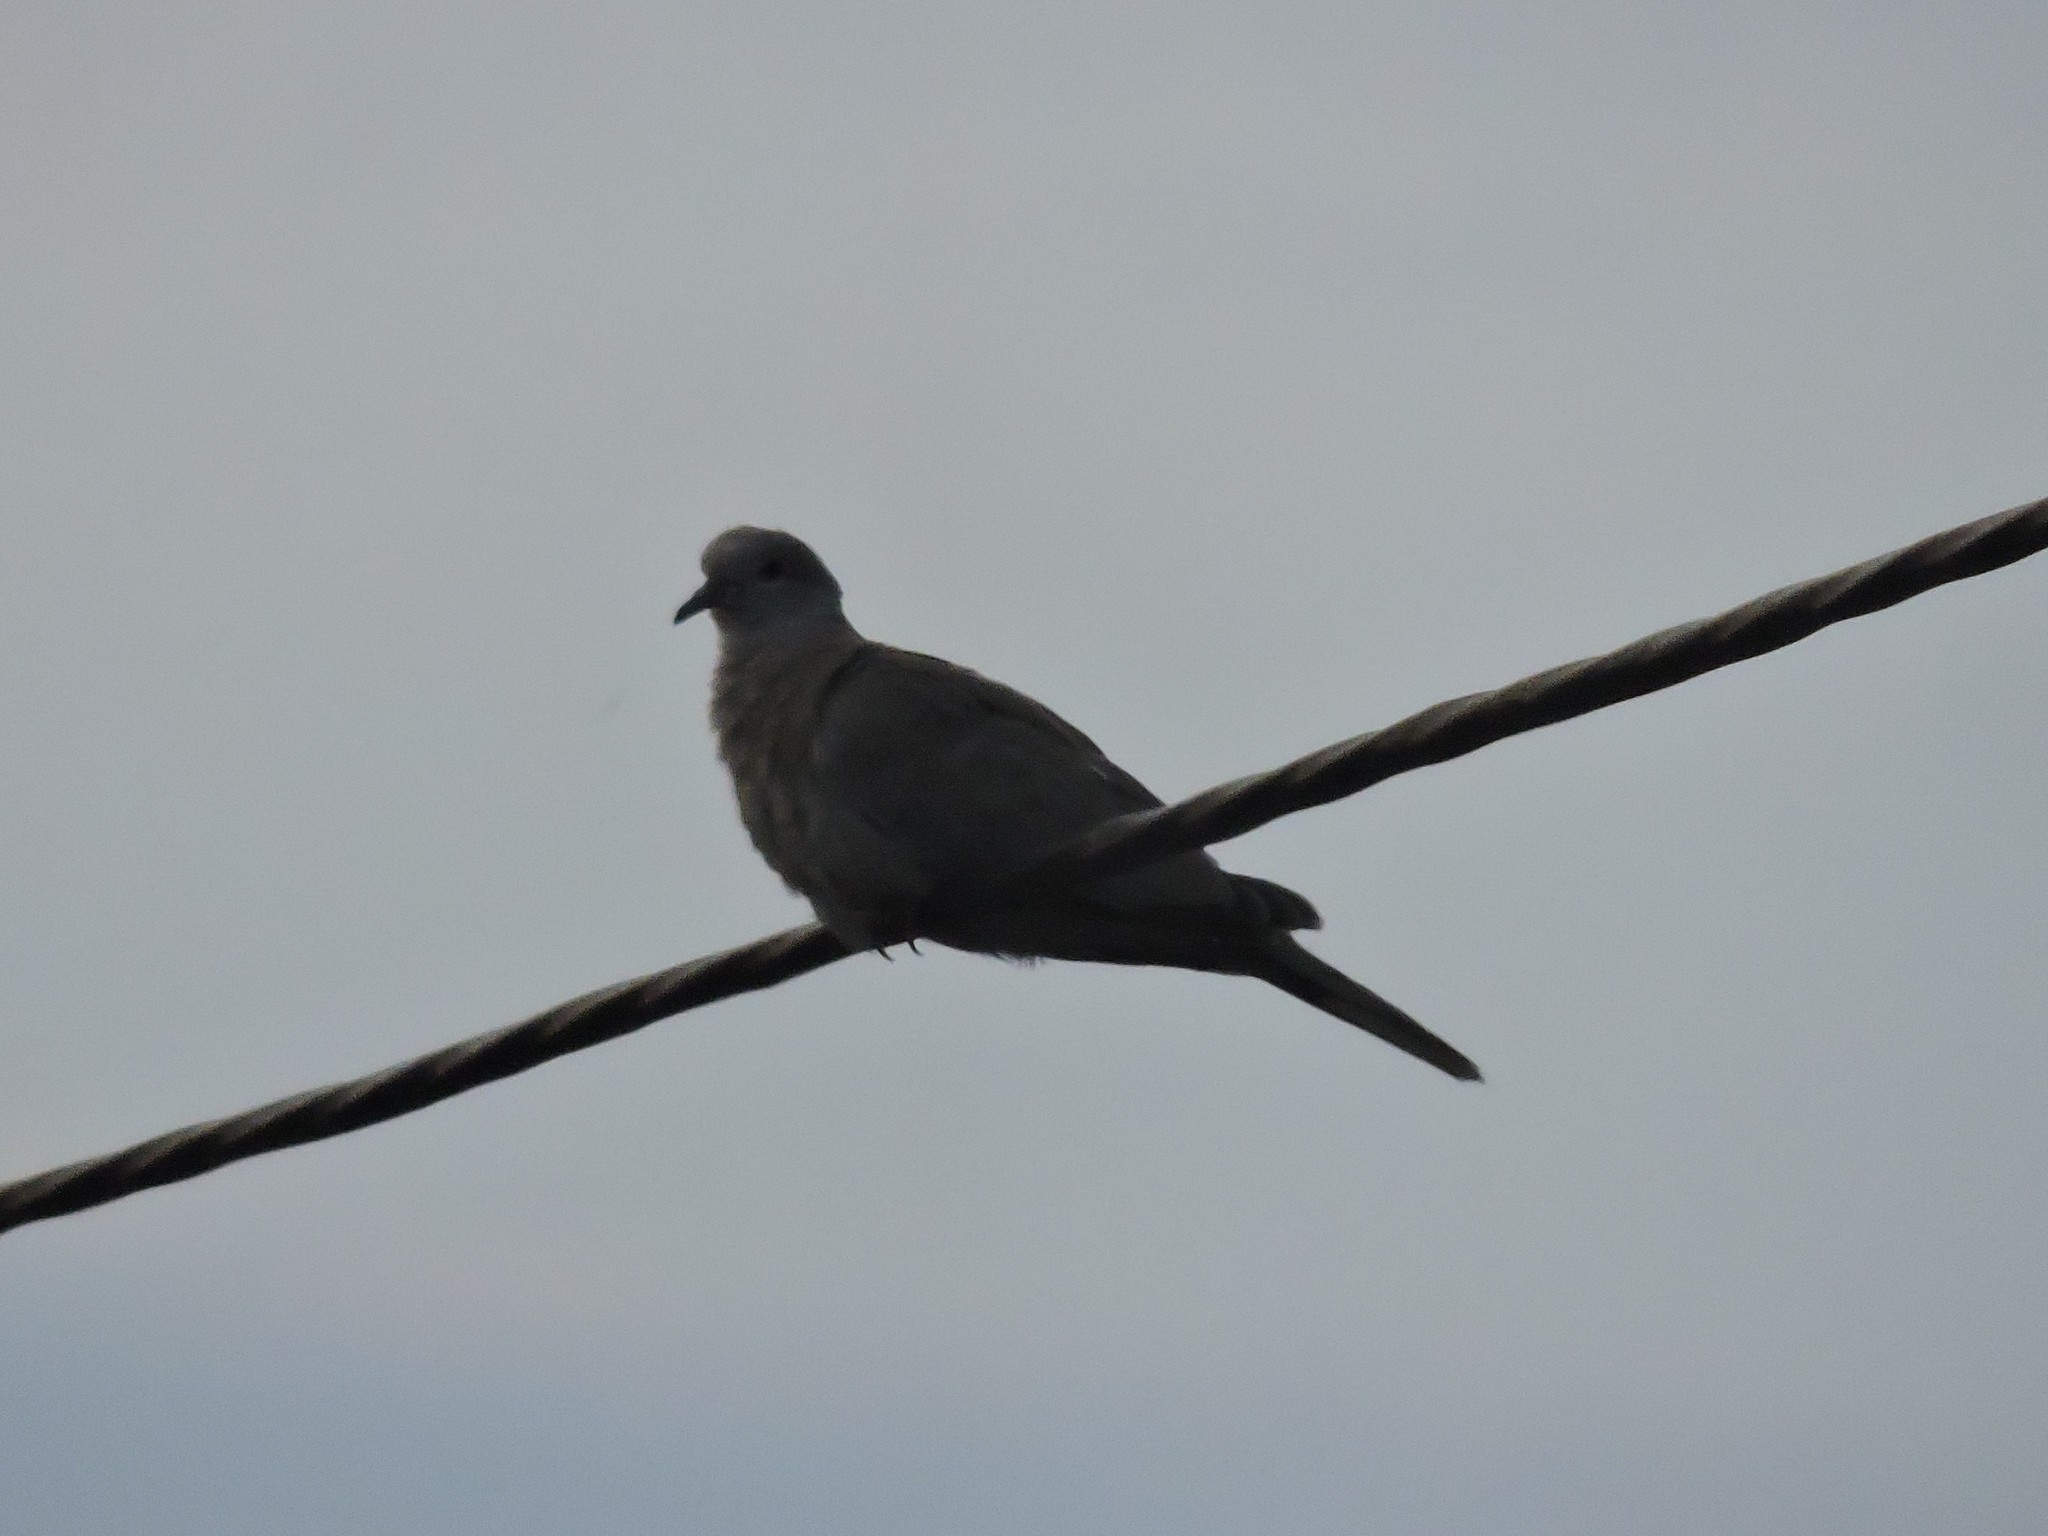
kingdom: Animalia
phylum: Chordata
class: Aves
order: Columbiformes
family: Columbidae
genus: Streptopelia
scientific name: Streptopelia decaocto
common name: Eurasian collared dove
